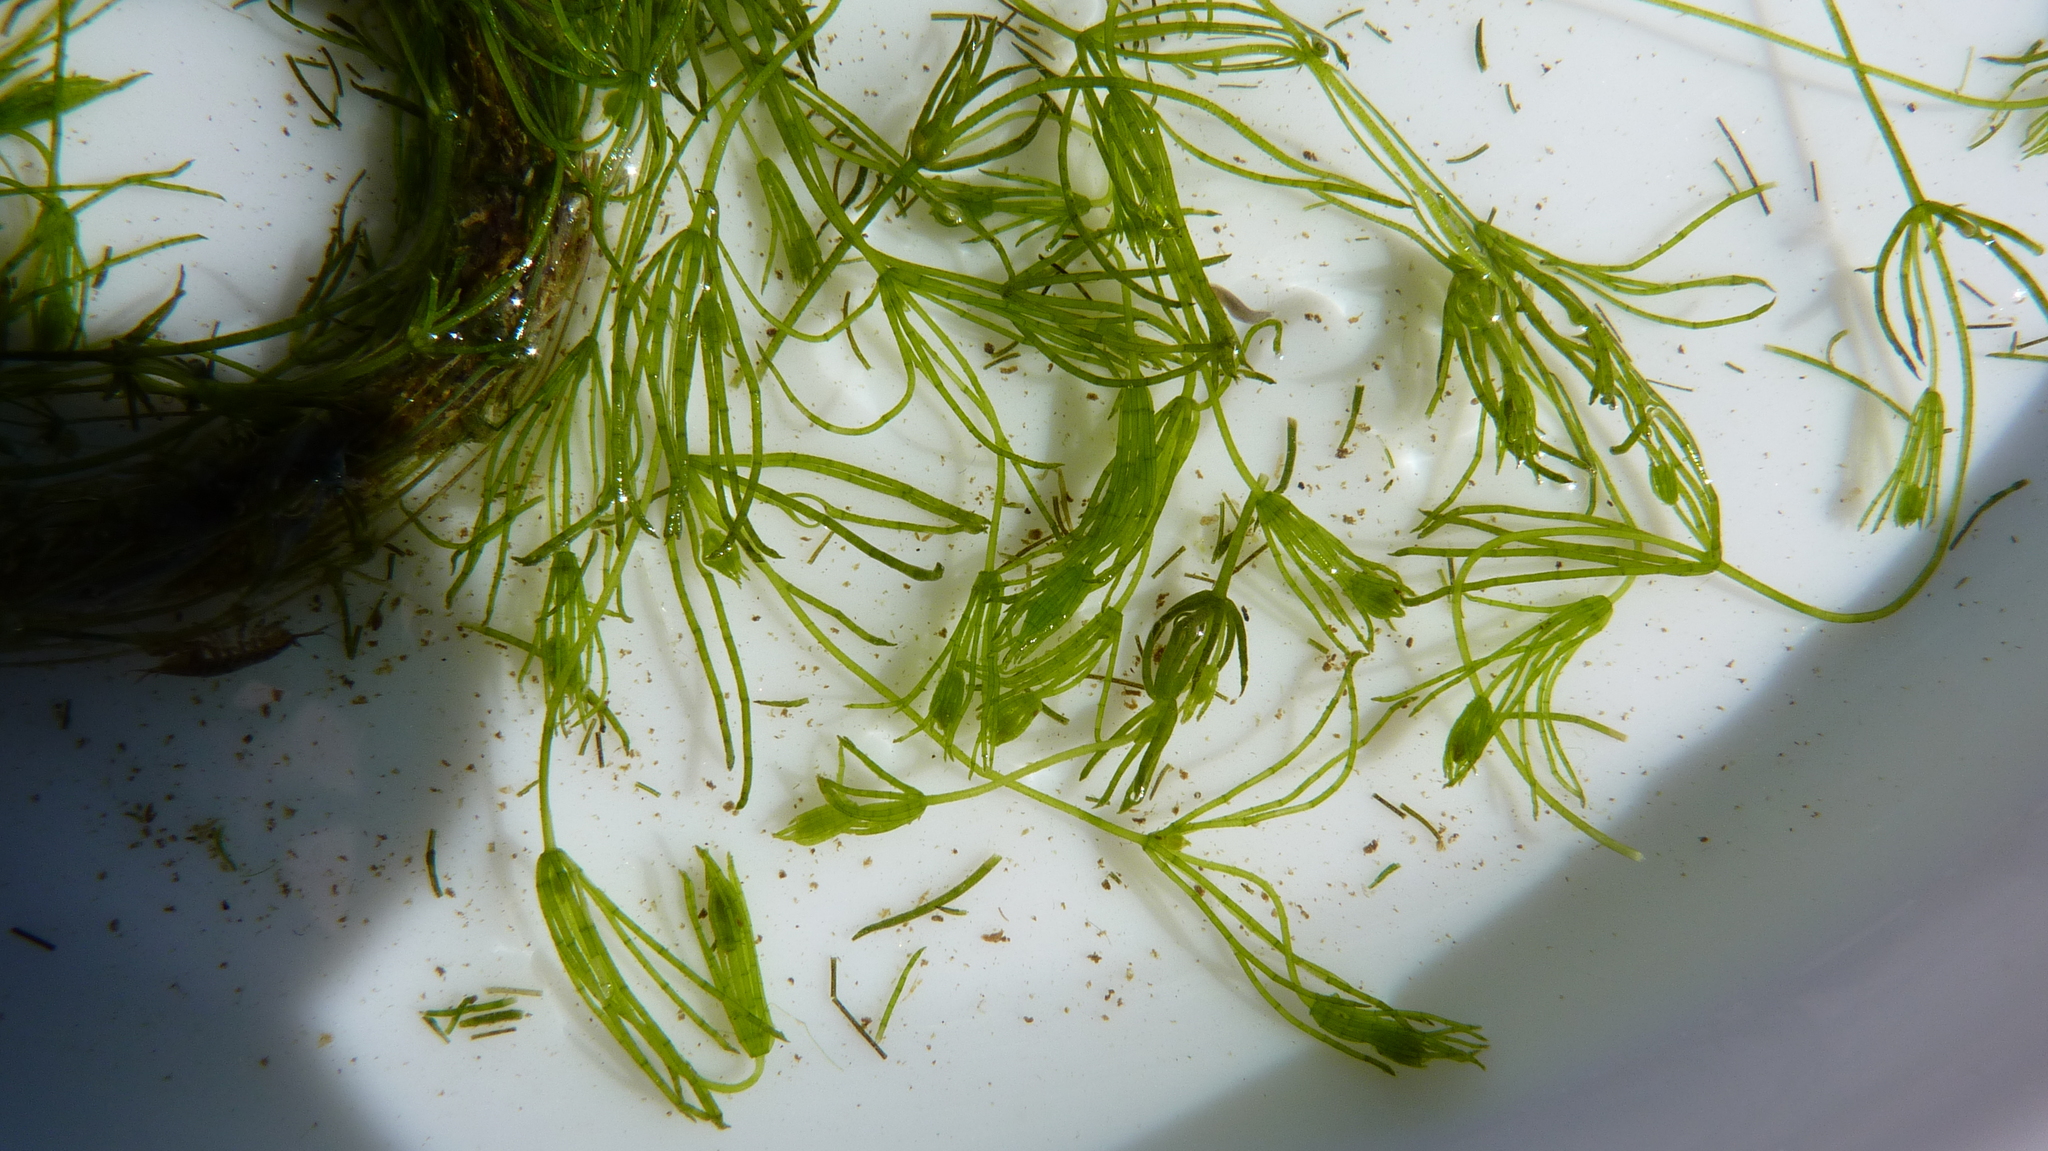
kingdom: Plantae
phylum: Charophyta
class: Charophyceae
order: Charales
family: Characeae
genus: Chara
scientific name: Chara
